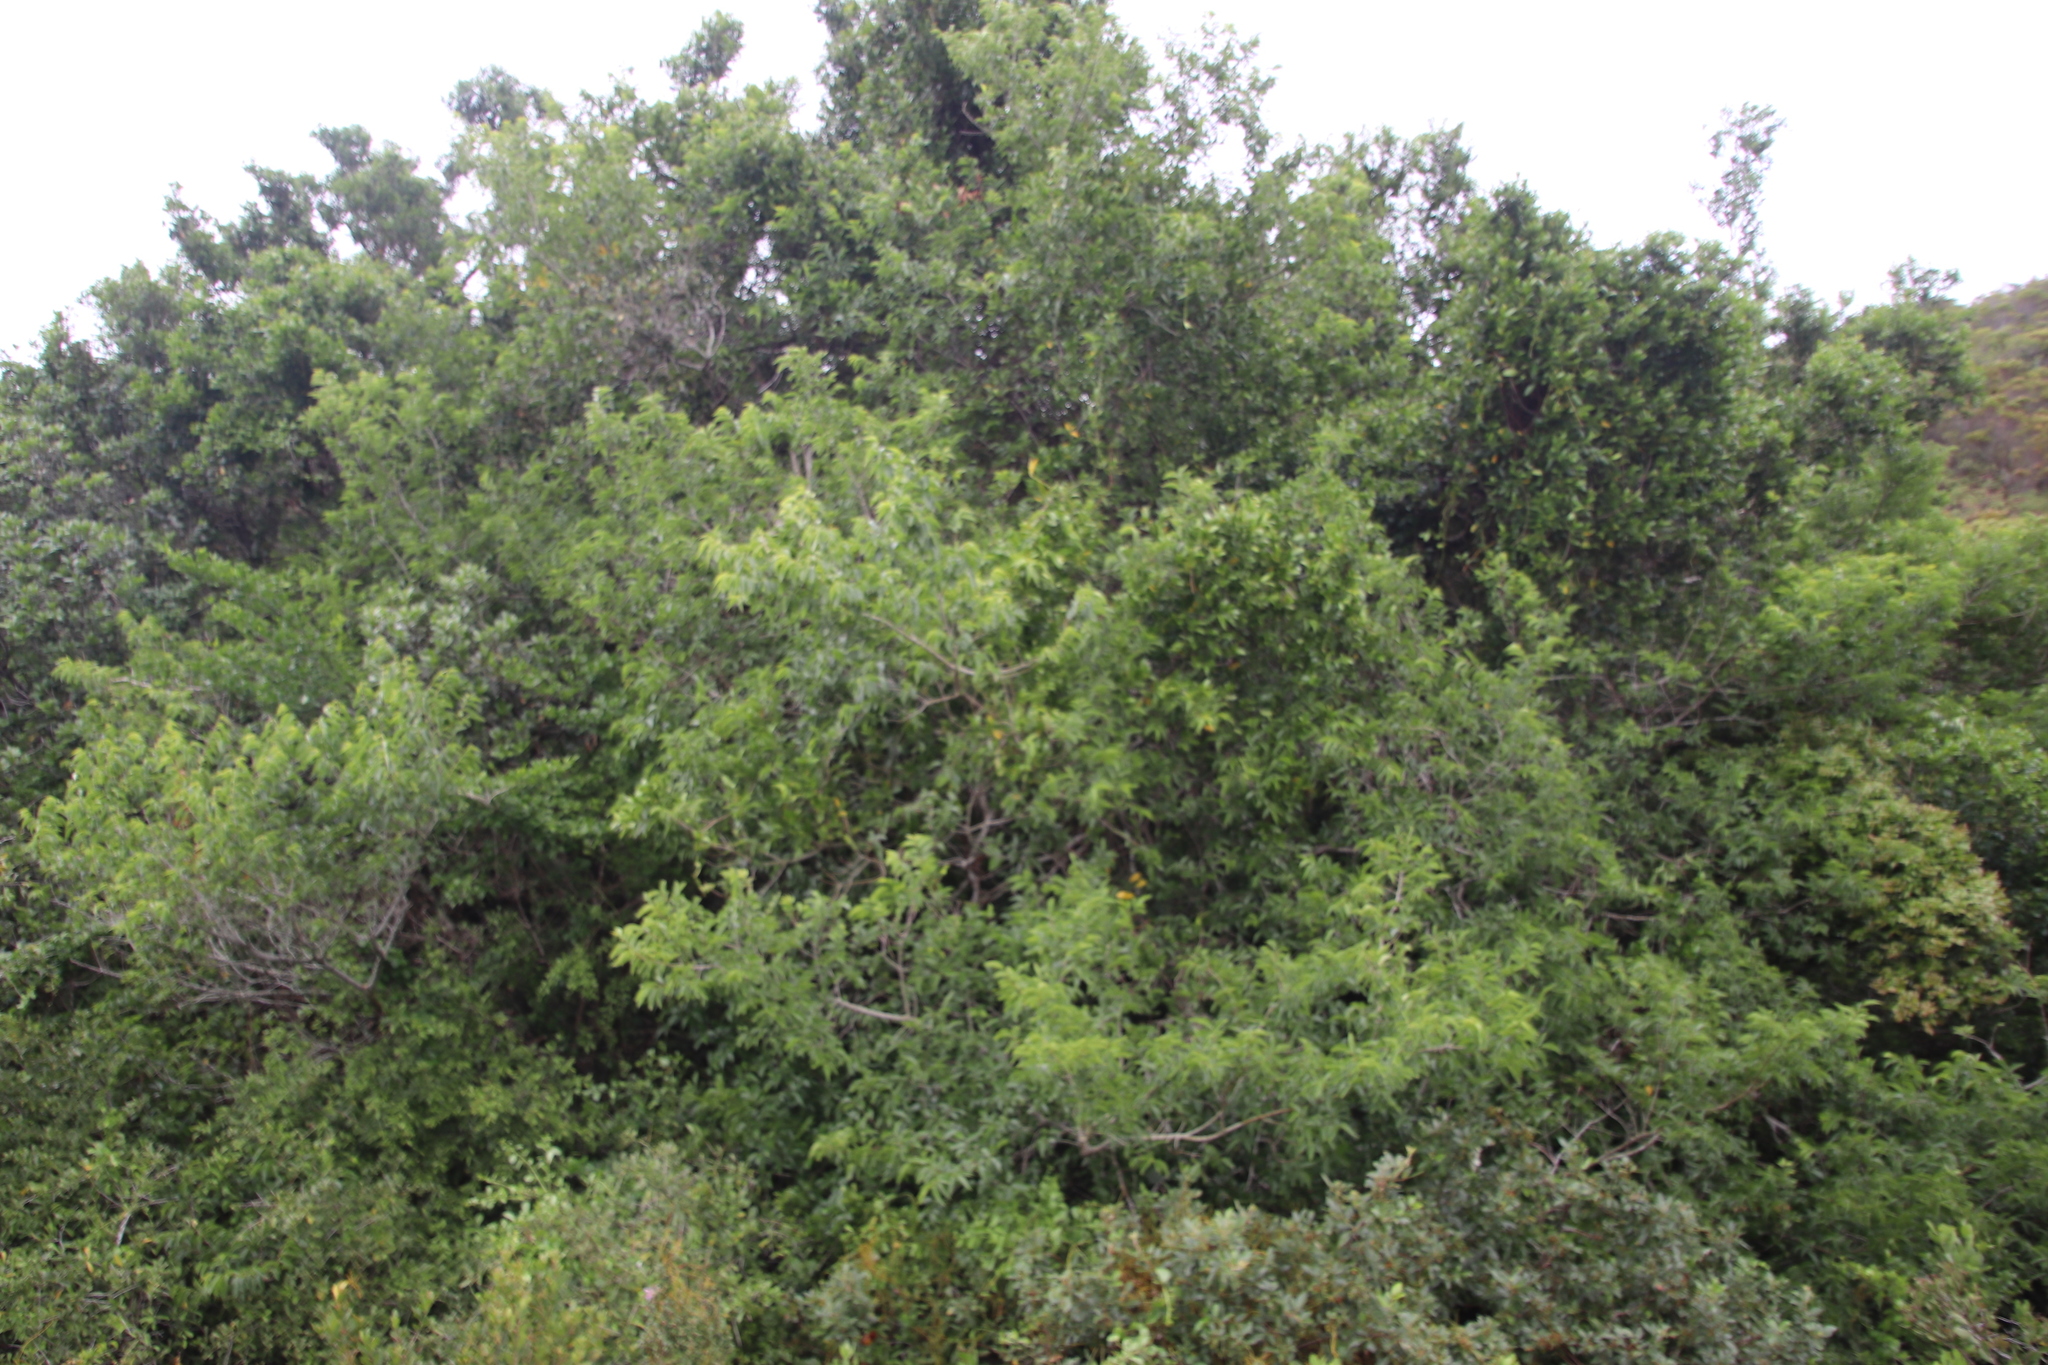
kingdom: Plantae
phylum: Tracheophyta
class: Magnoliopsida
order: Ericales
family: Ebenaceae
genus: Diospyros
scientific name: Diospyros whyteana
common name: Bladder-nut
